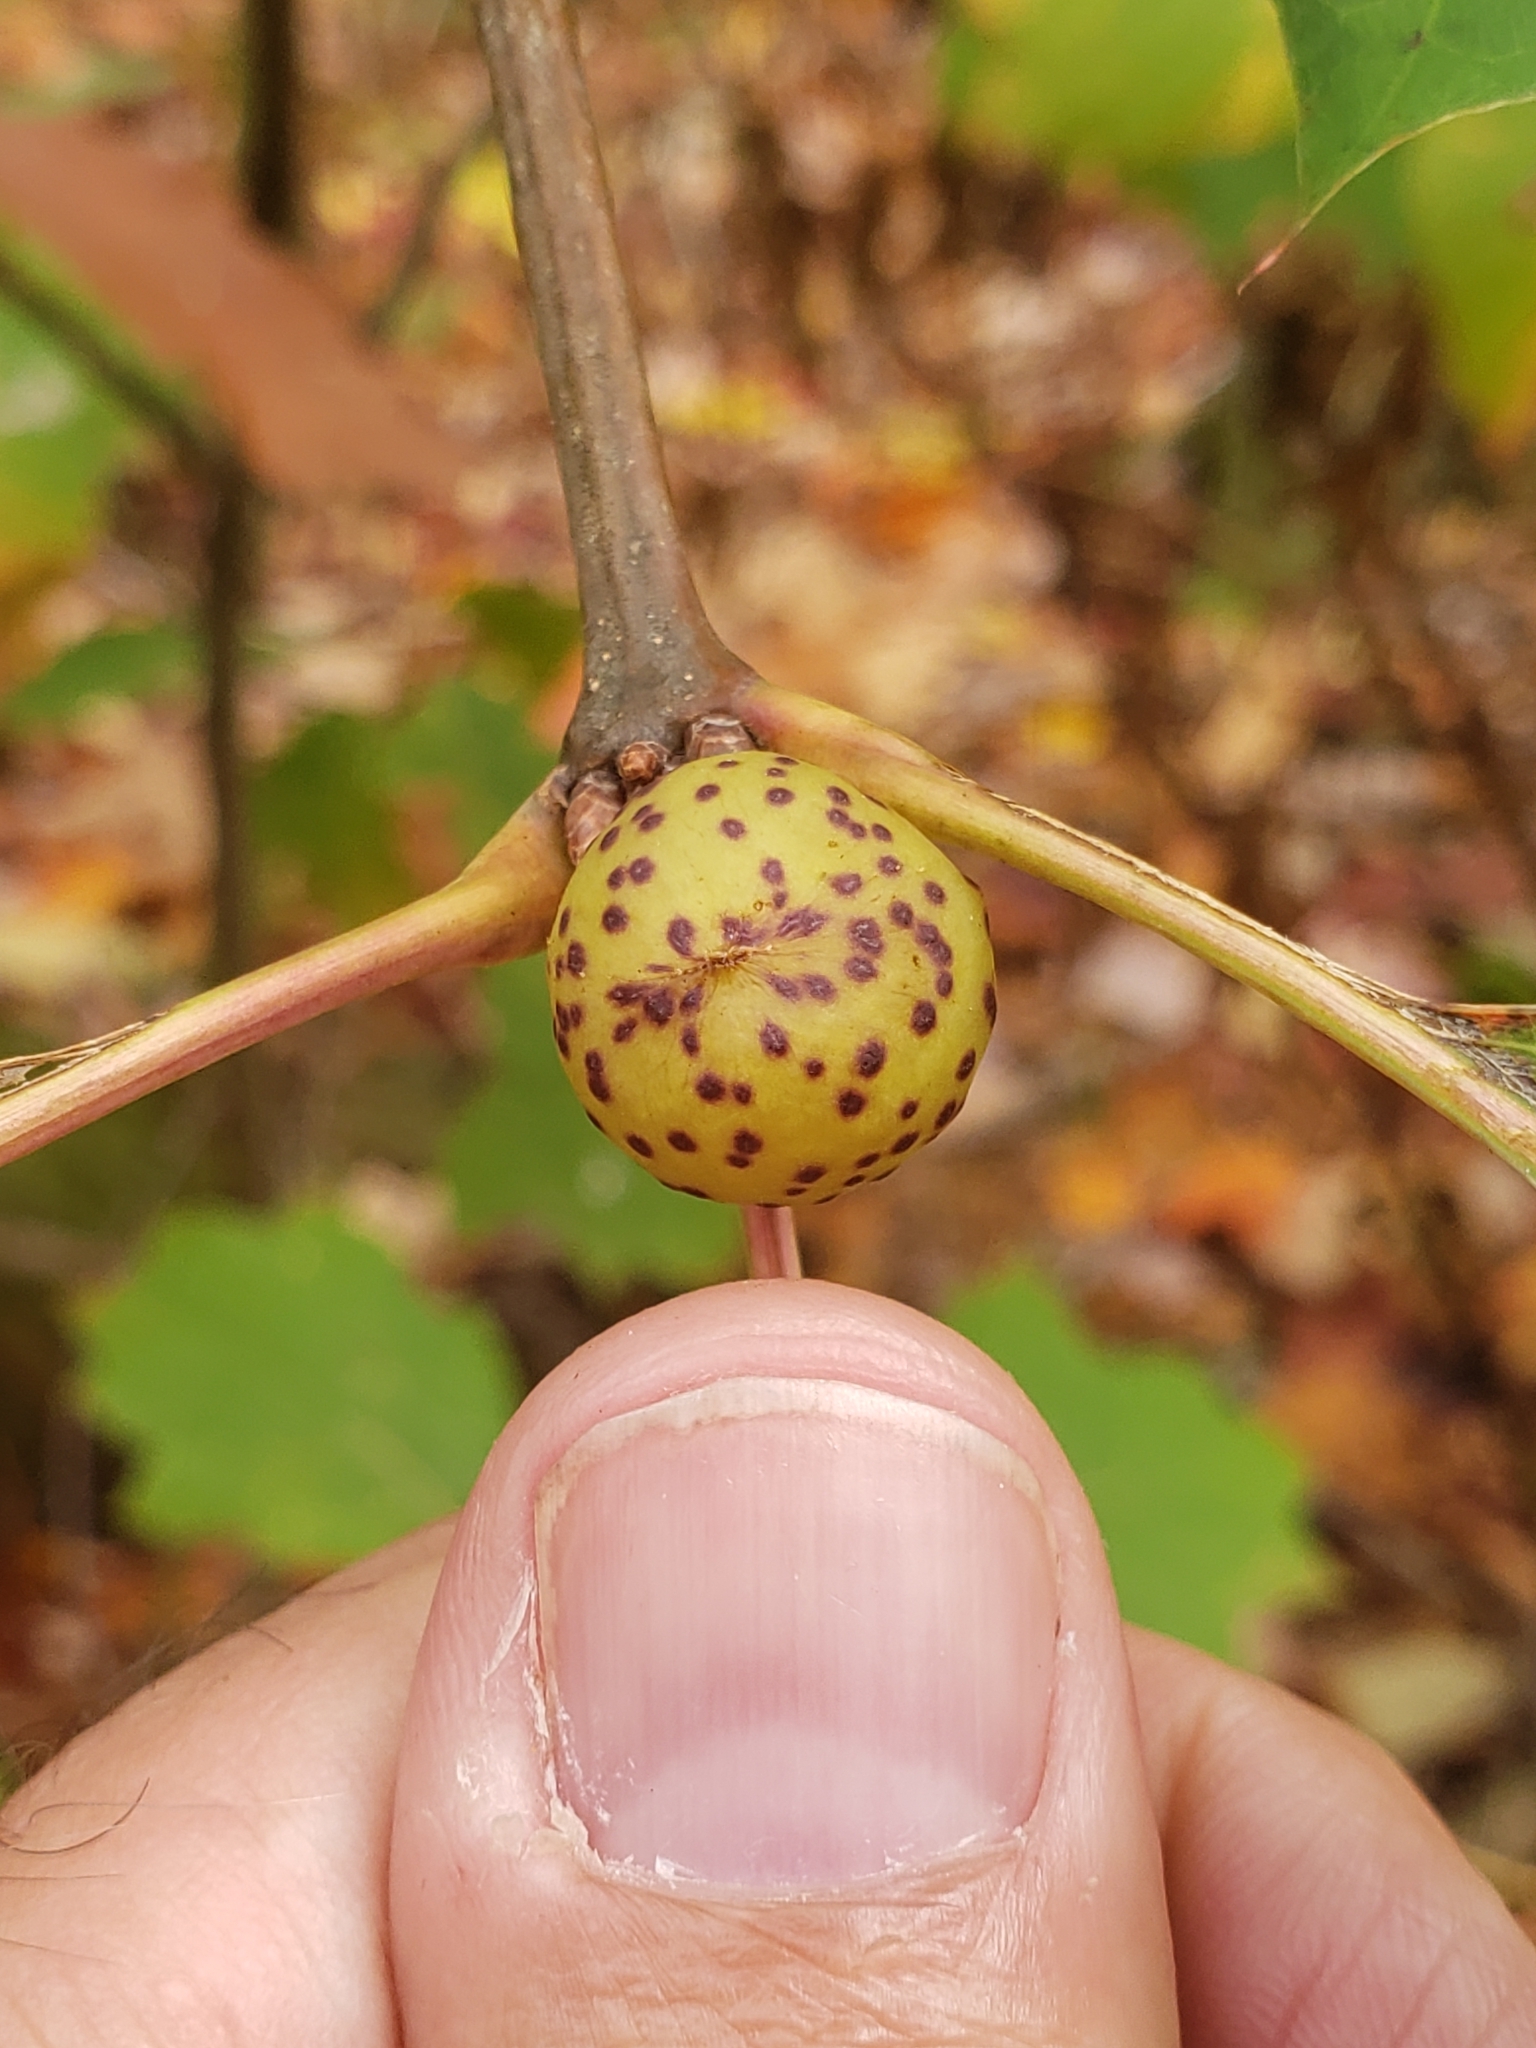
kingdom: Animalia
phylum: Arthropoda
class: Insecta
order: Hymenoptera
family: Cynipidae
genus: Amphibolips
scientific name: Amphibolips
